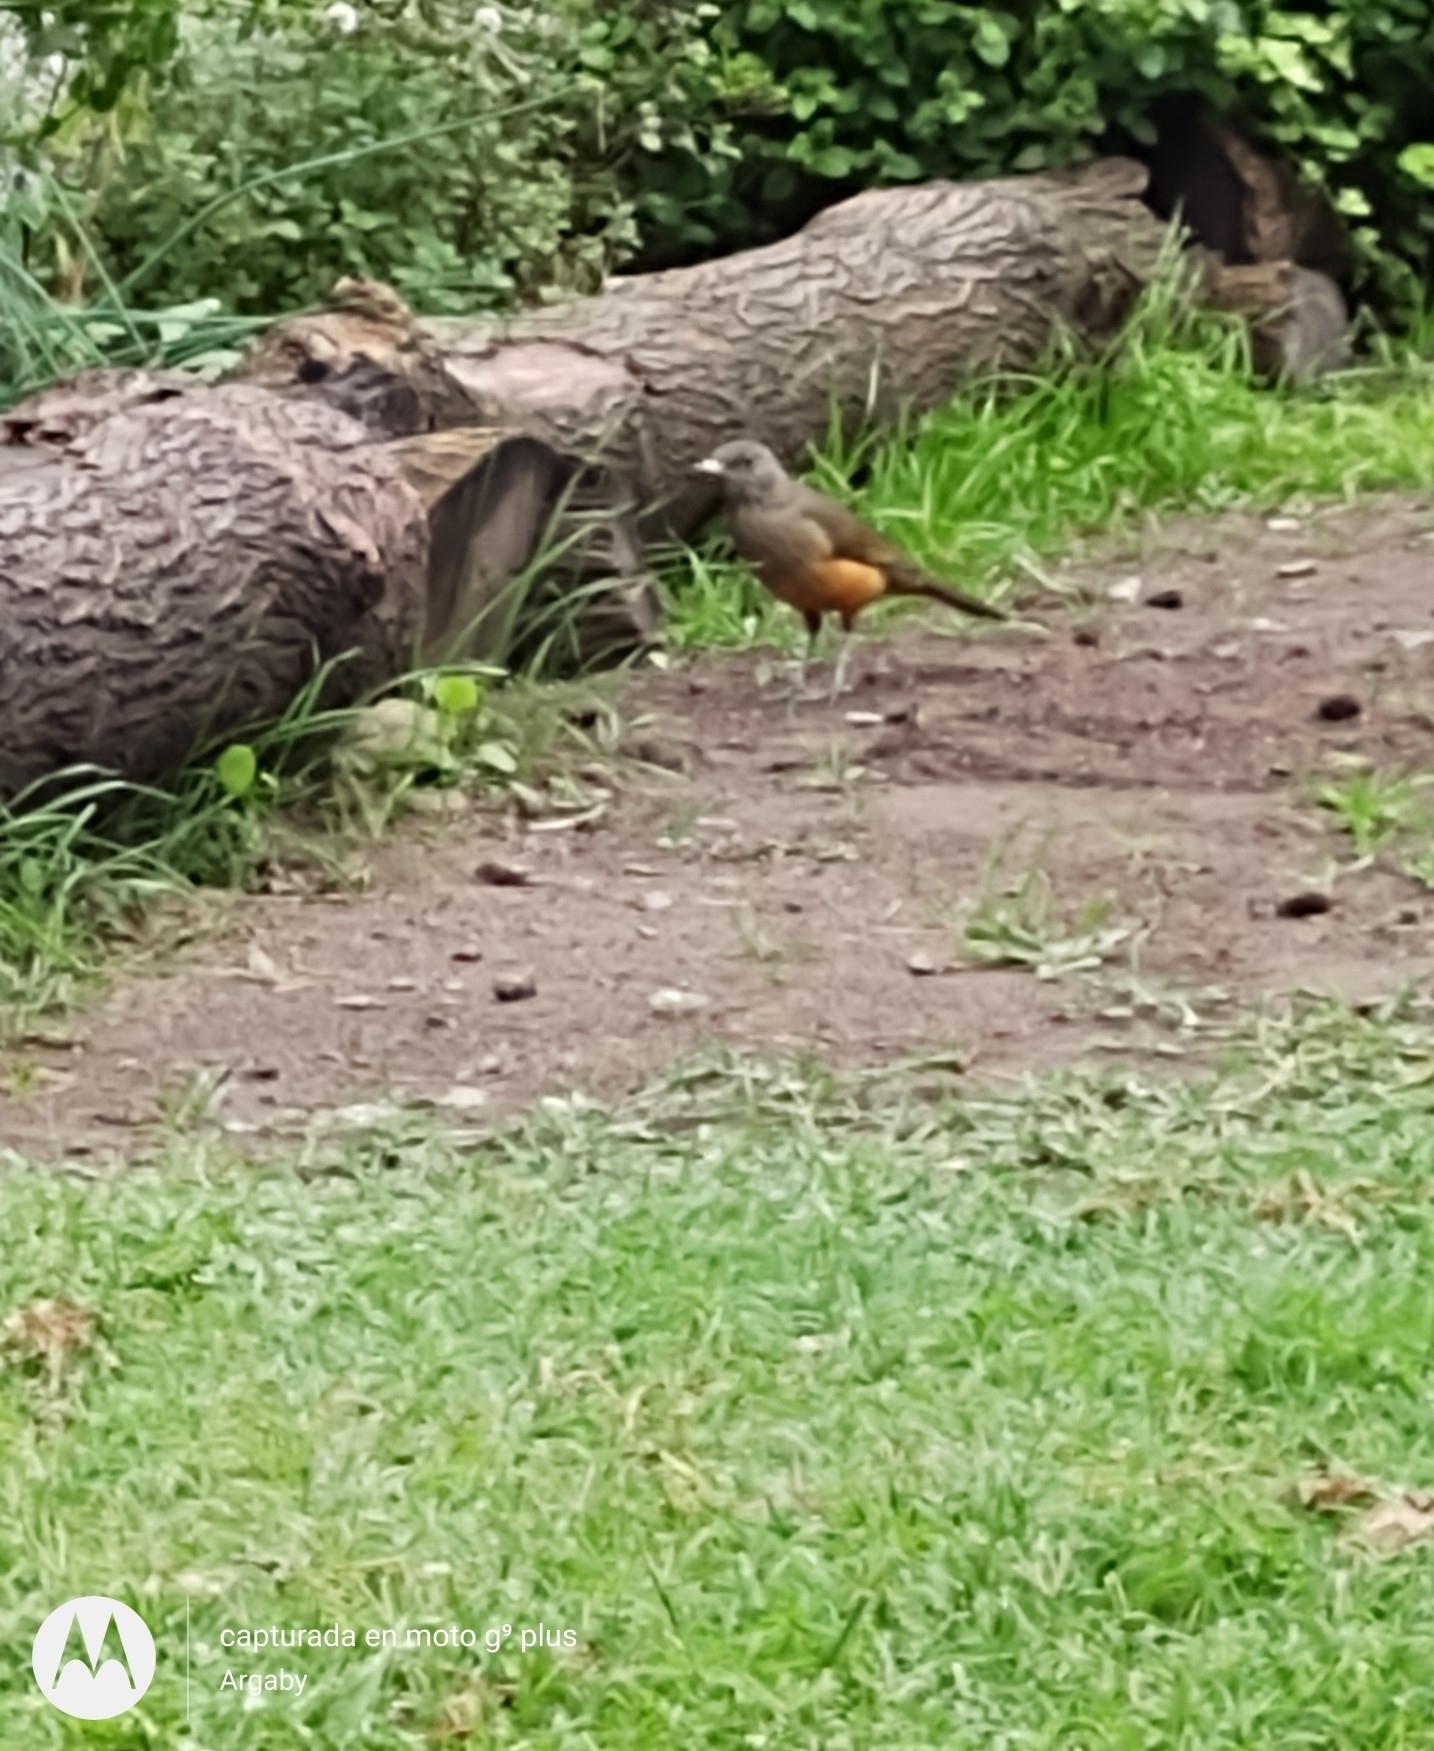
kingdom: Animalia
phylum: Chordata
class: Aves
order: Passeriformes
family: Turdidae
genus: Turdus
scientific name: Turdus rufiventris
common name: Rufous-bellied thrush
